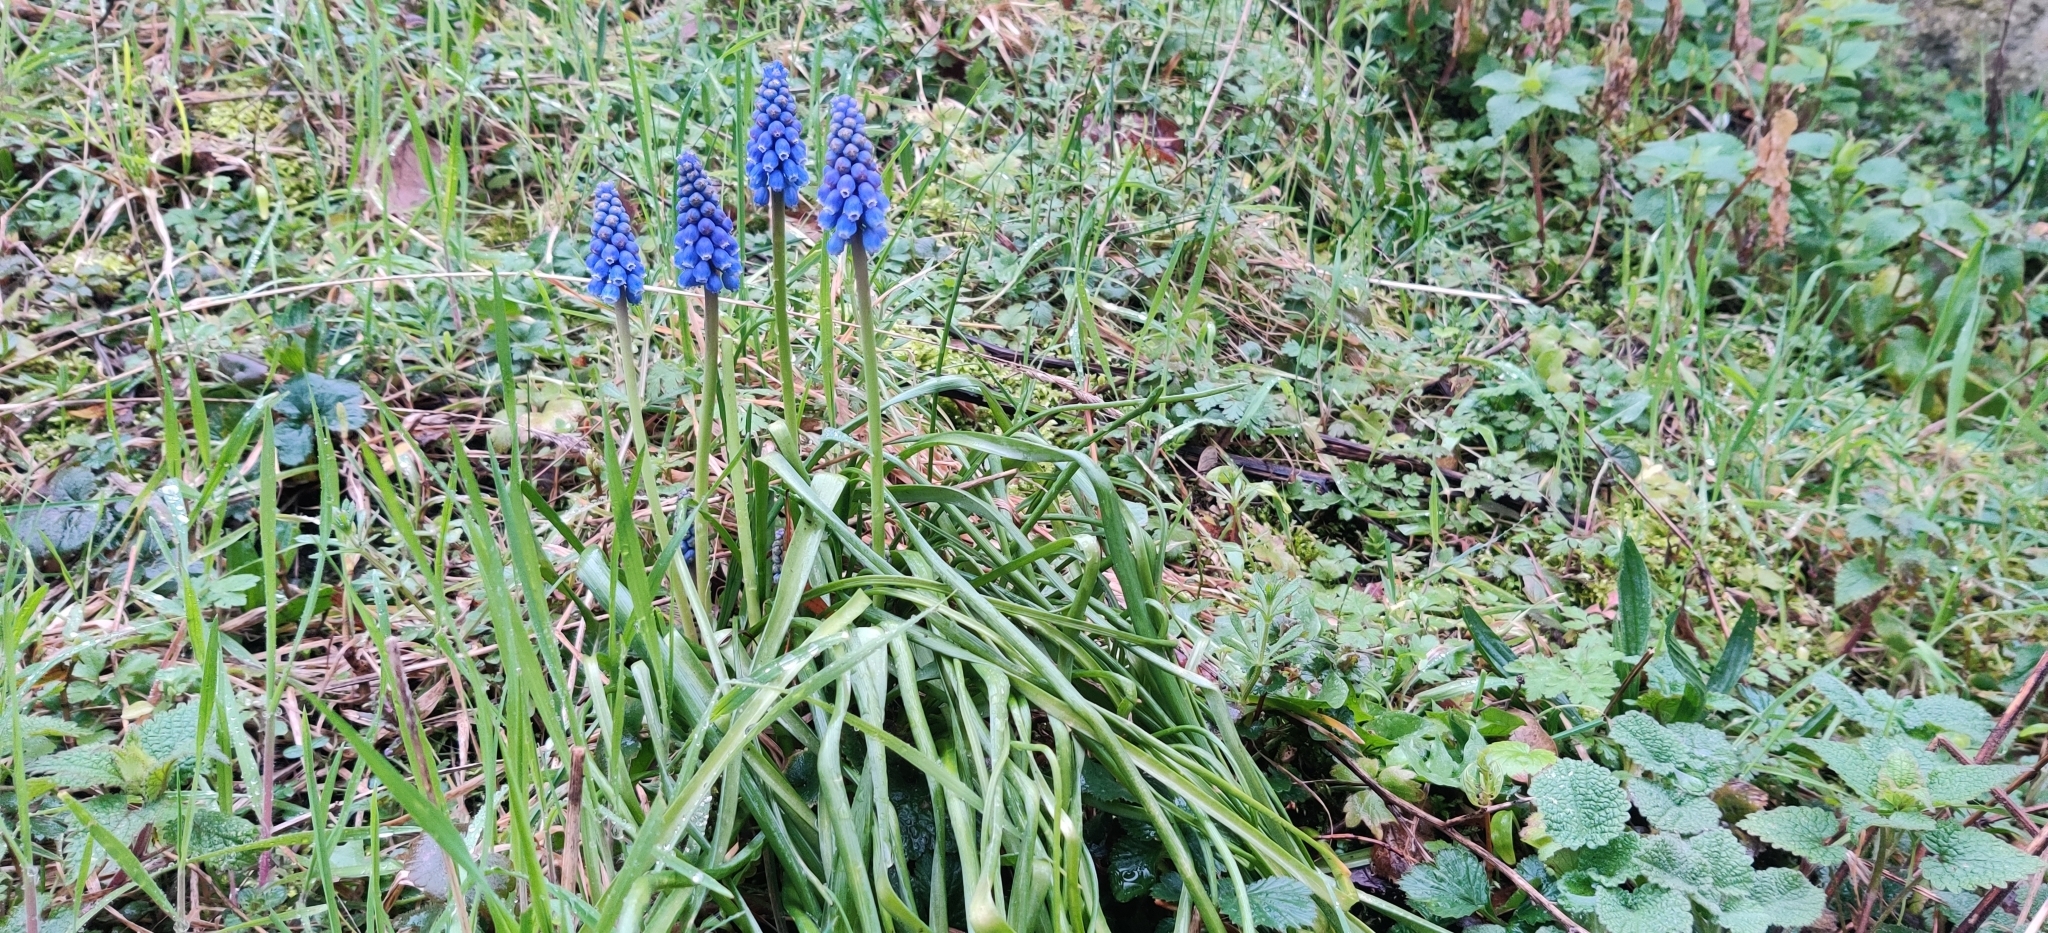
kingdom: Plantae
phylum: Tracheophyta
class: Liliopsida
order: Asparagales
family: Asparagaceae
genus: Muscari
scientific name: Muscari armeniacum
